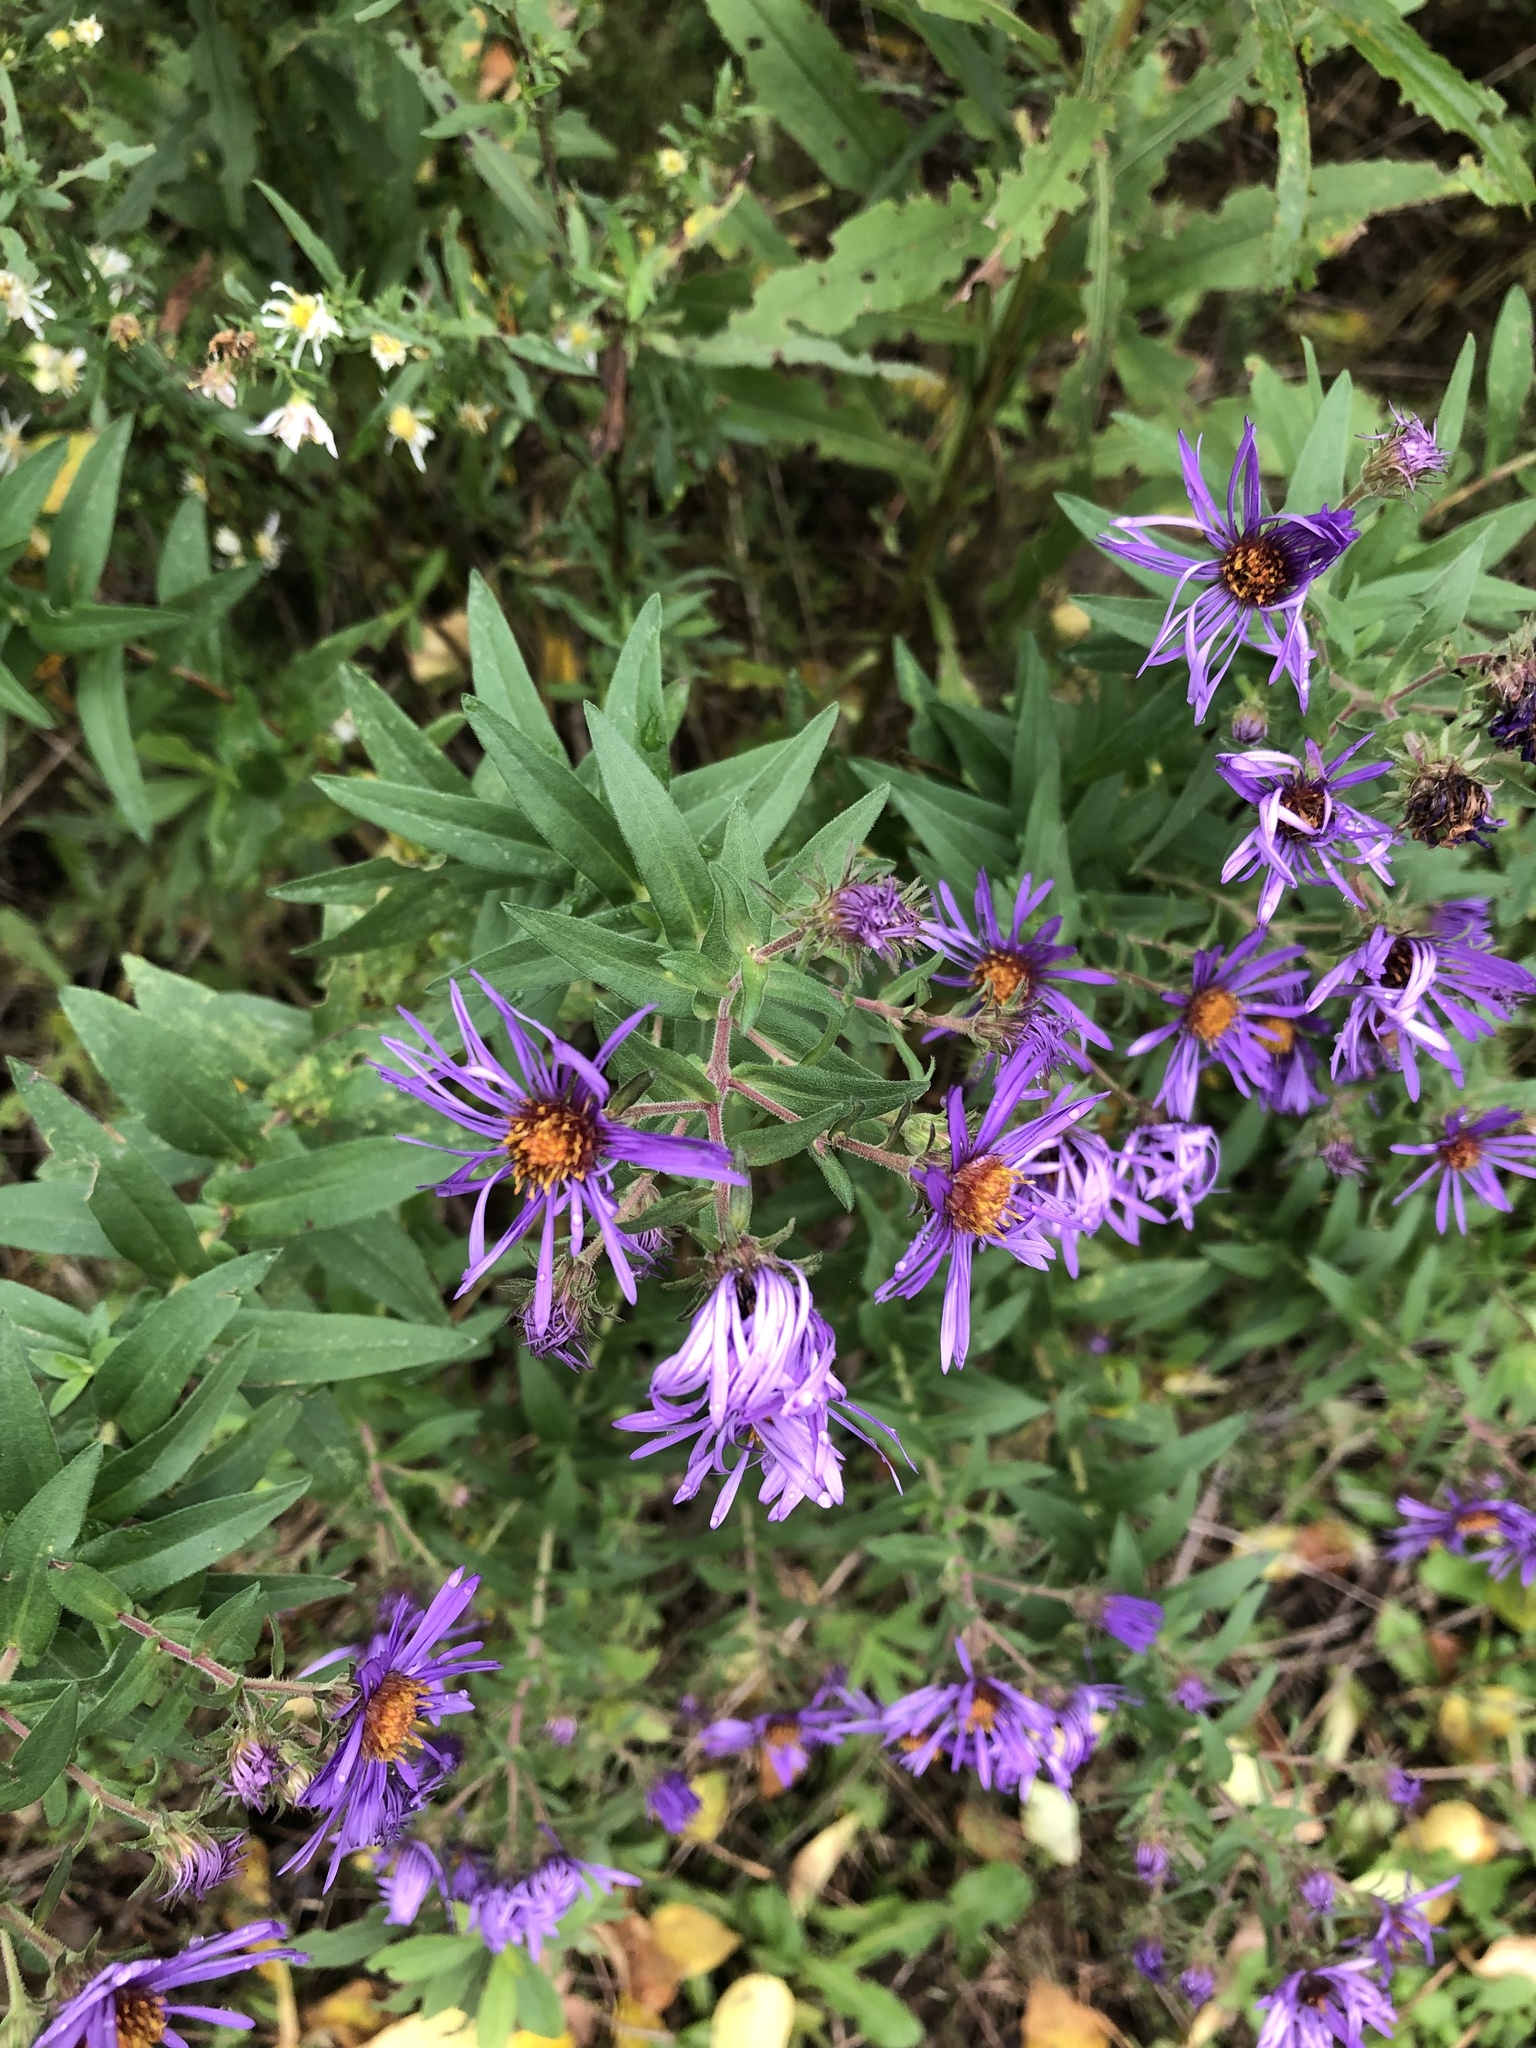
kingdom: Plantae
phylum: Tracheophyta
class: Magnoliopsida
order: Asterales
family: Asteraceae
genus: Symphyotrichum
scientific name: Symphyotrichum novae-angliae
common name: Michaelmas daisy
